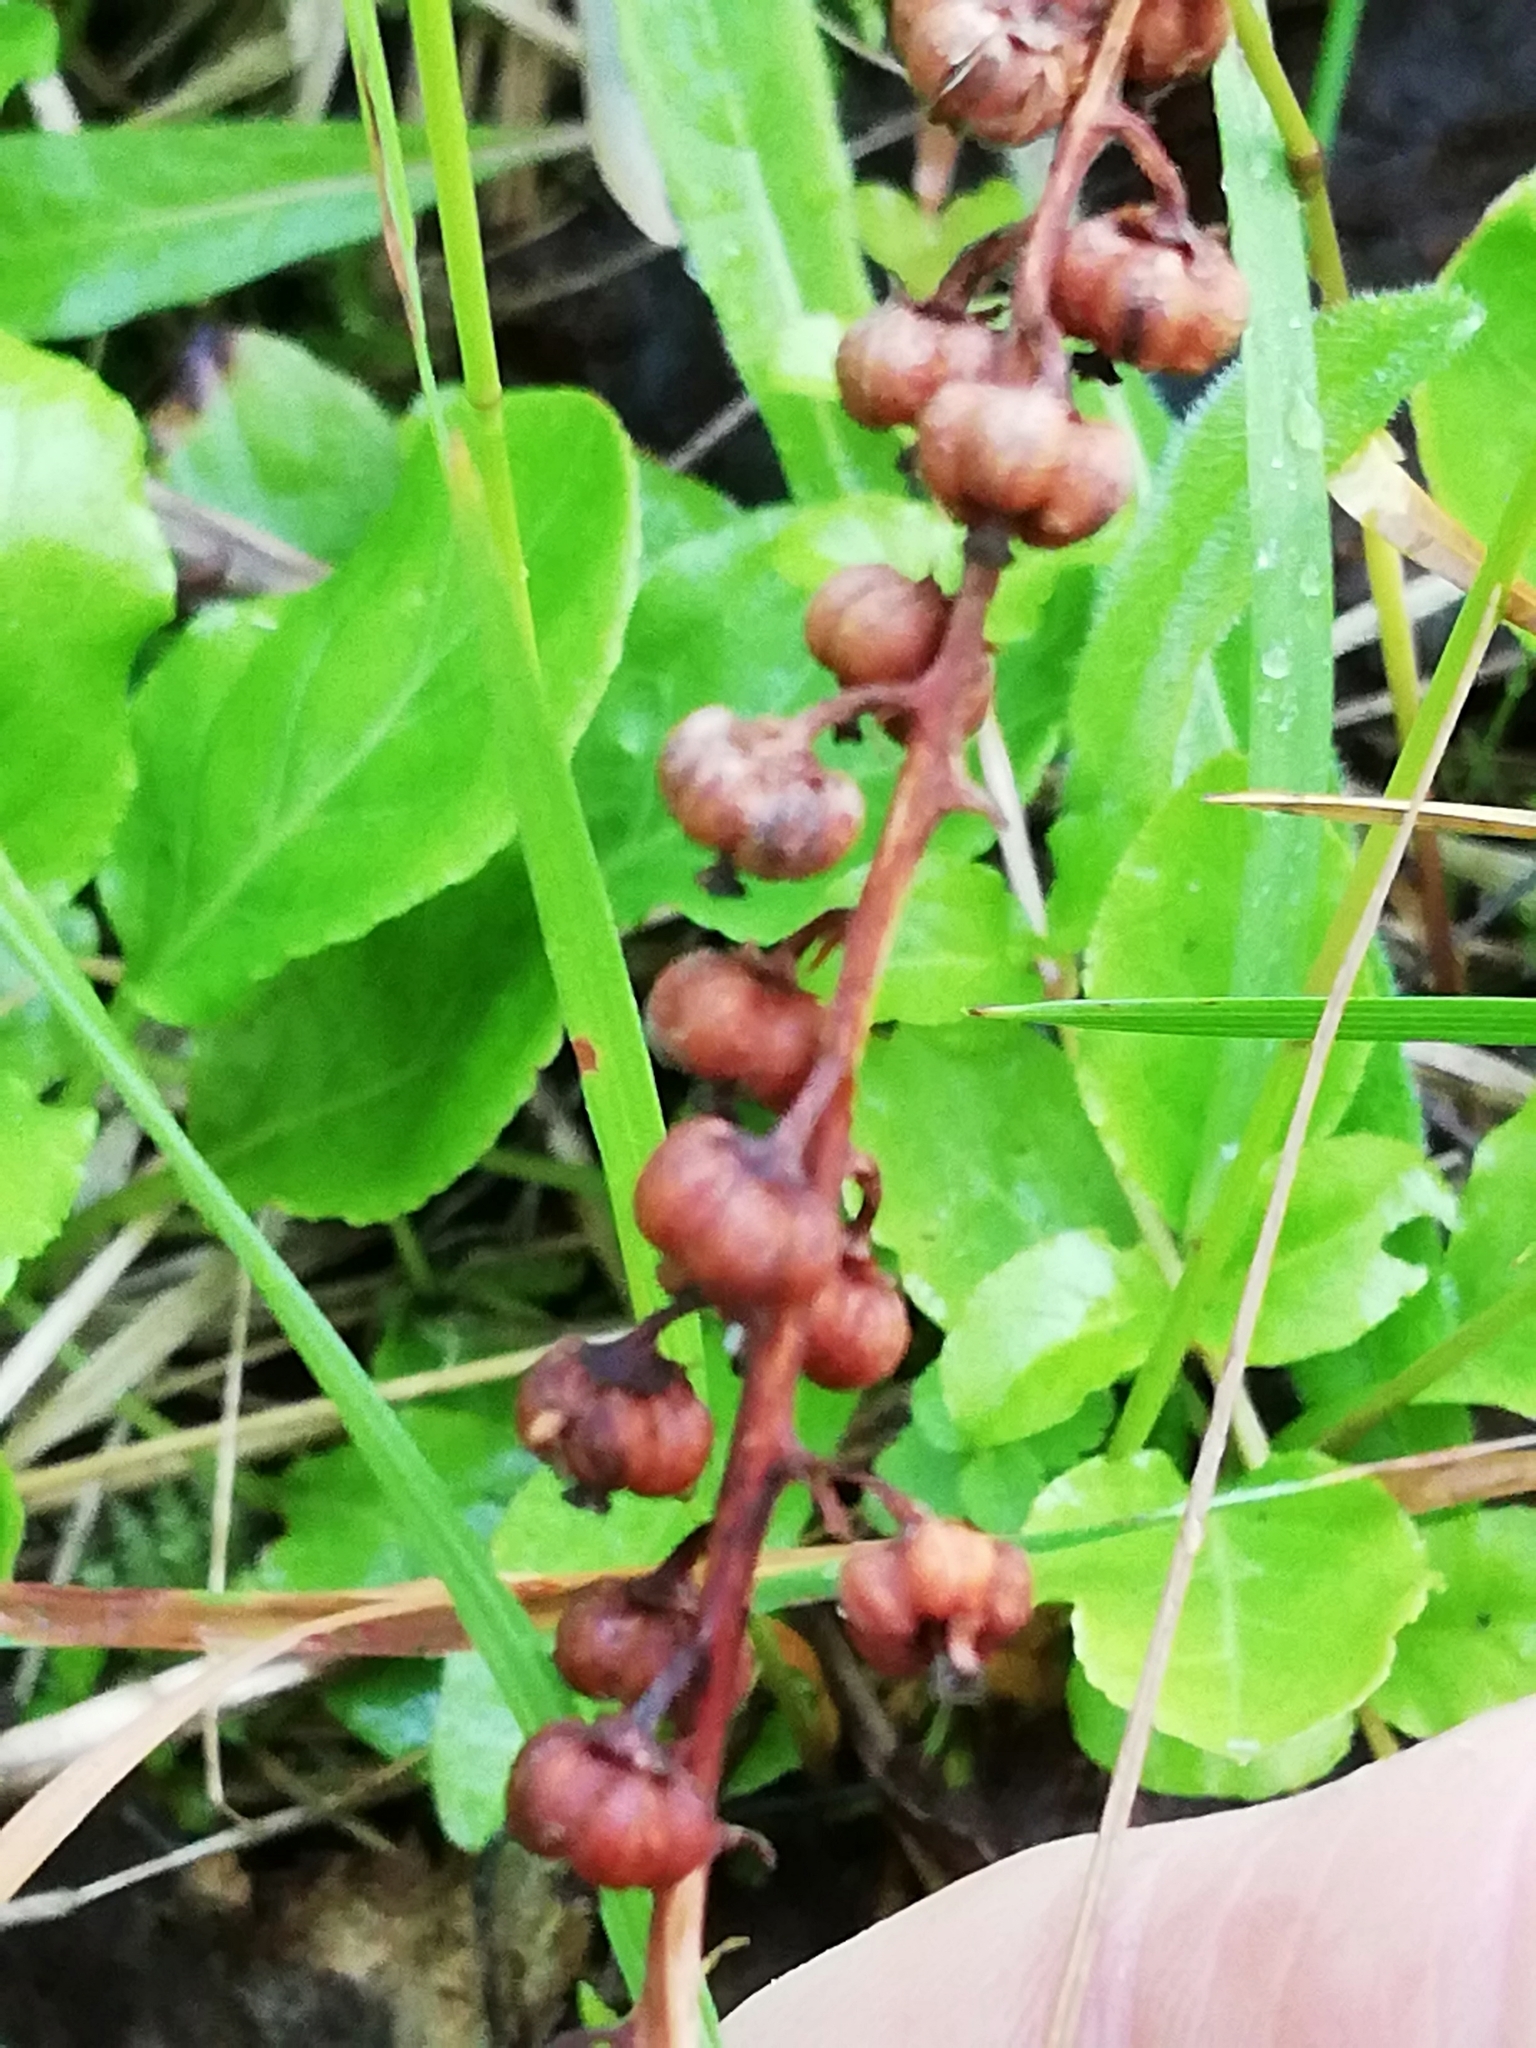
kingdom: Plantae
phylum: Tracheophyta
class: Magnoliopsida
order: Ericales
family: Ericaceae
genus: Pyrola
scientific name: Pyrola minor
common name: Common wintergreen
